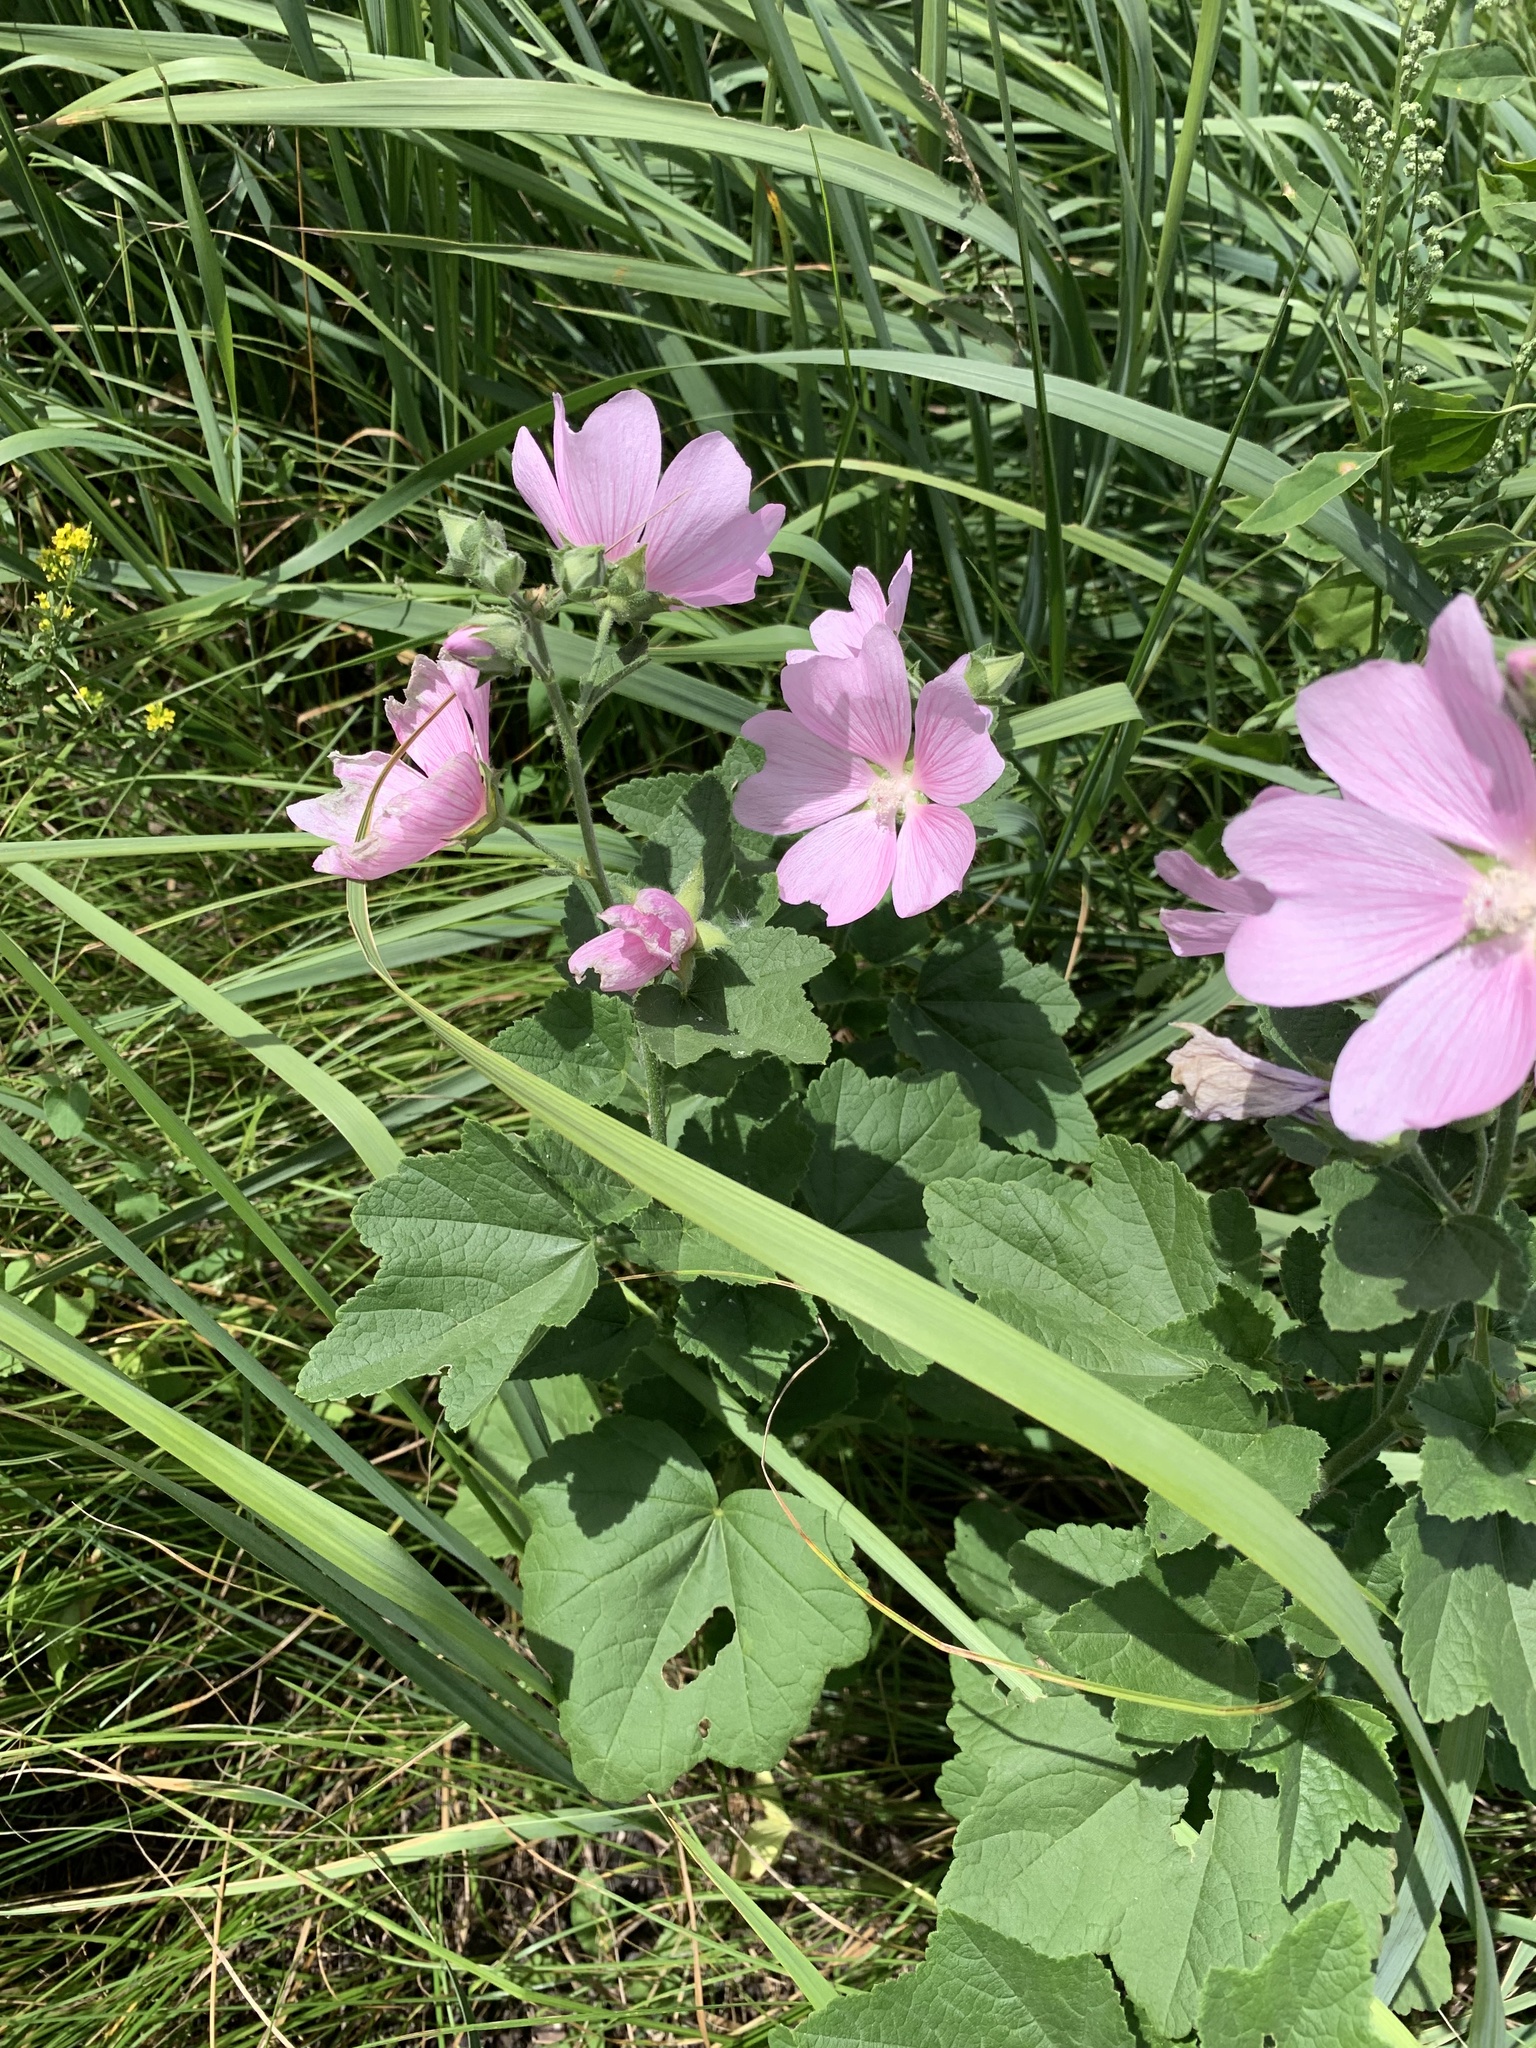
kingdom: Plantae
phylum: Tracheophyta
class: Magnoliopsida
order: Malvales
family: Malvaceae
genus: Malva
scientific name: Malva thuringiaca
